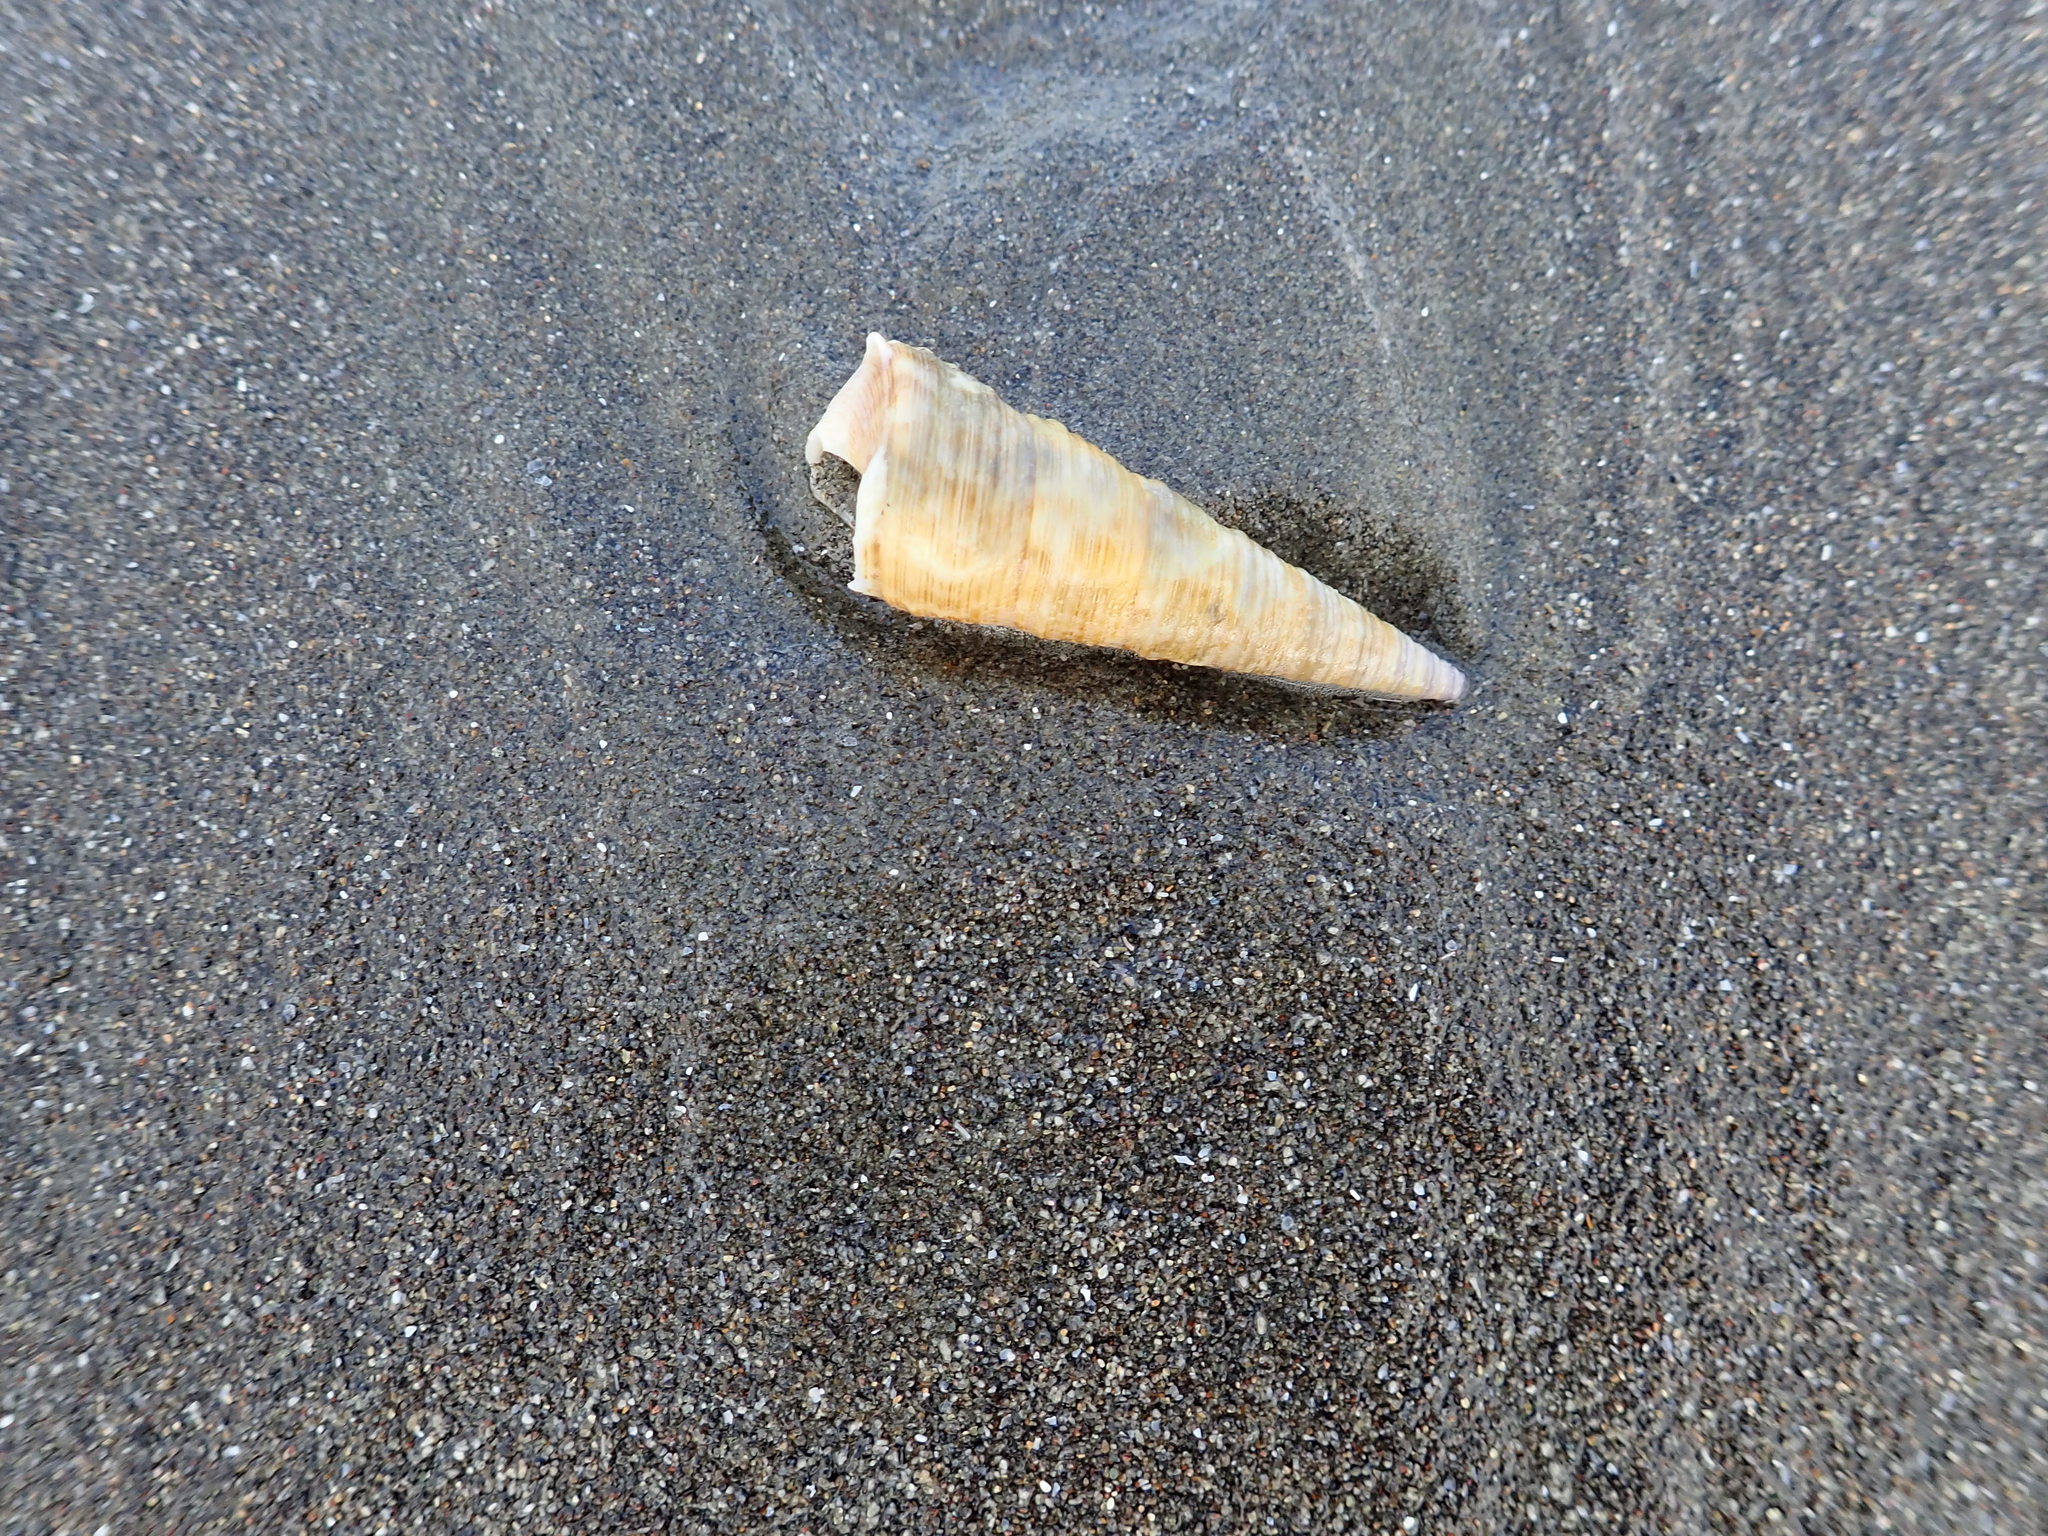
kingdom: Animalia
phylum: Mollusca
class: Gastropoda
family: Turritellidae
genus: Maoricolpus
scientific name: Maoricolpus roseus
